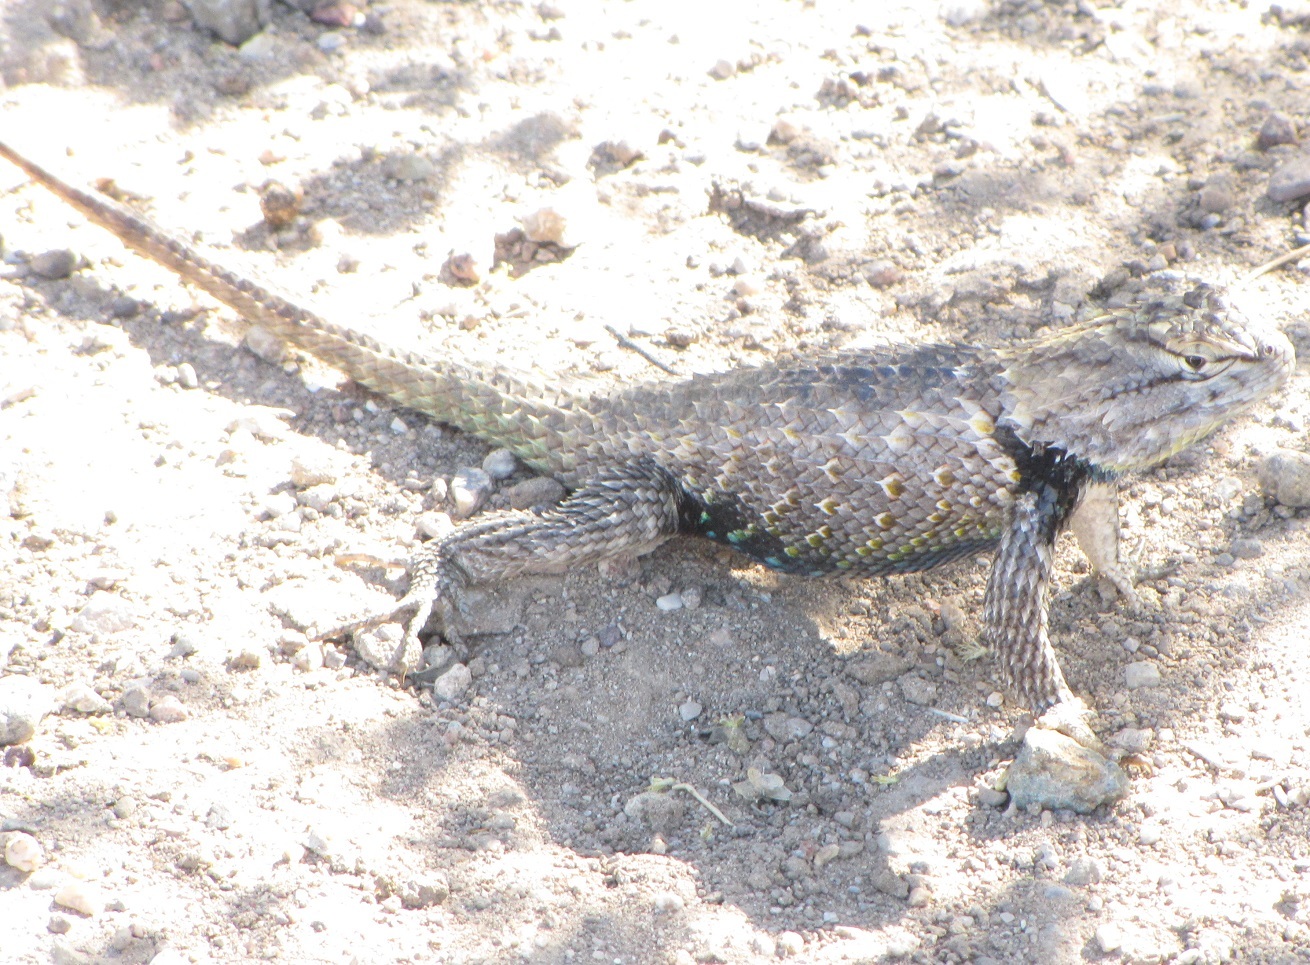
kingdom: Animalia
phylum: Chordata
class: Squamata
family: Phrynosomatidae
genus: Sceloporus
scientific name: Sceloporus magister
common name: Desert spiny lizard
